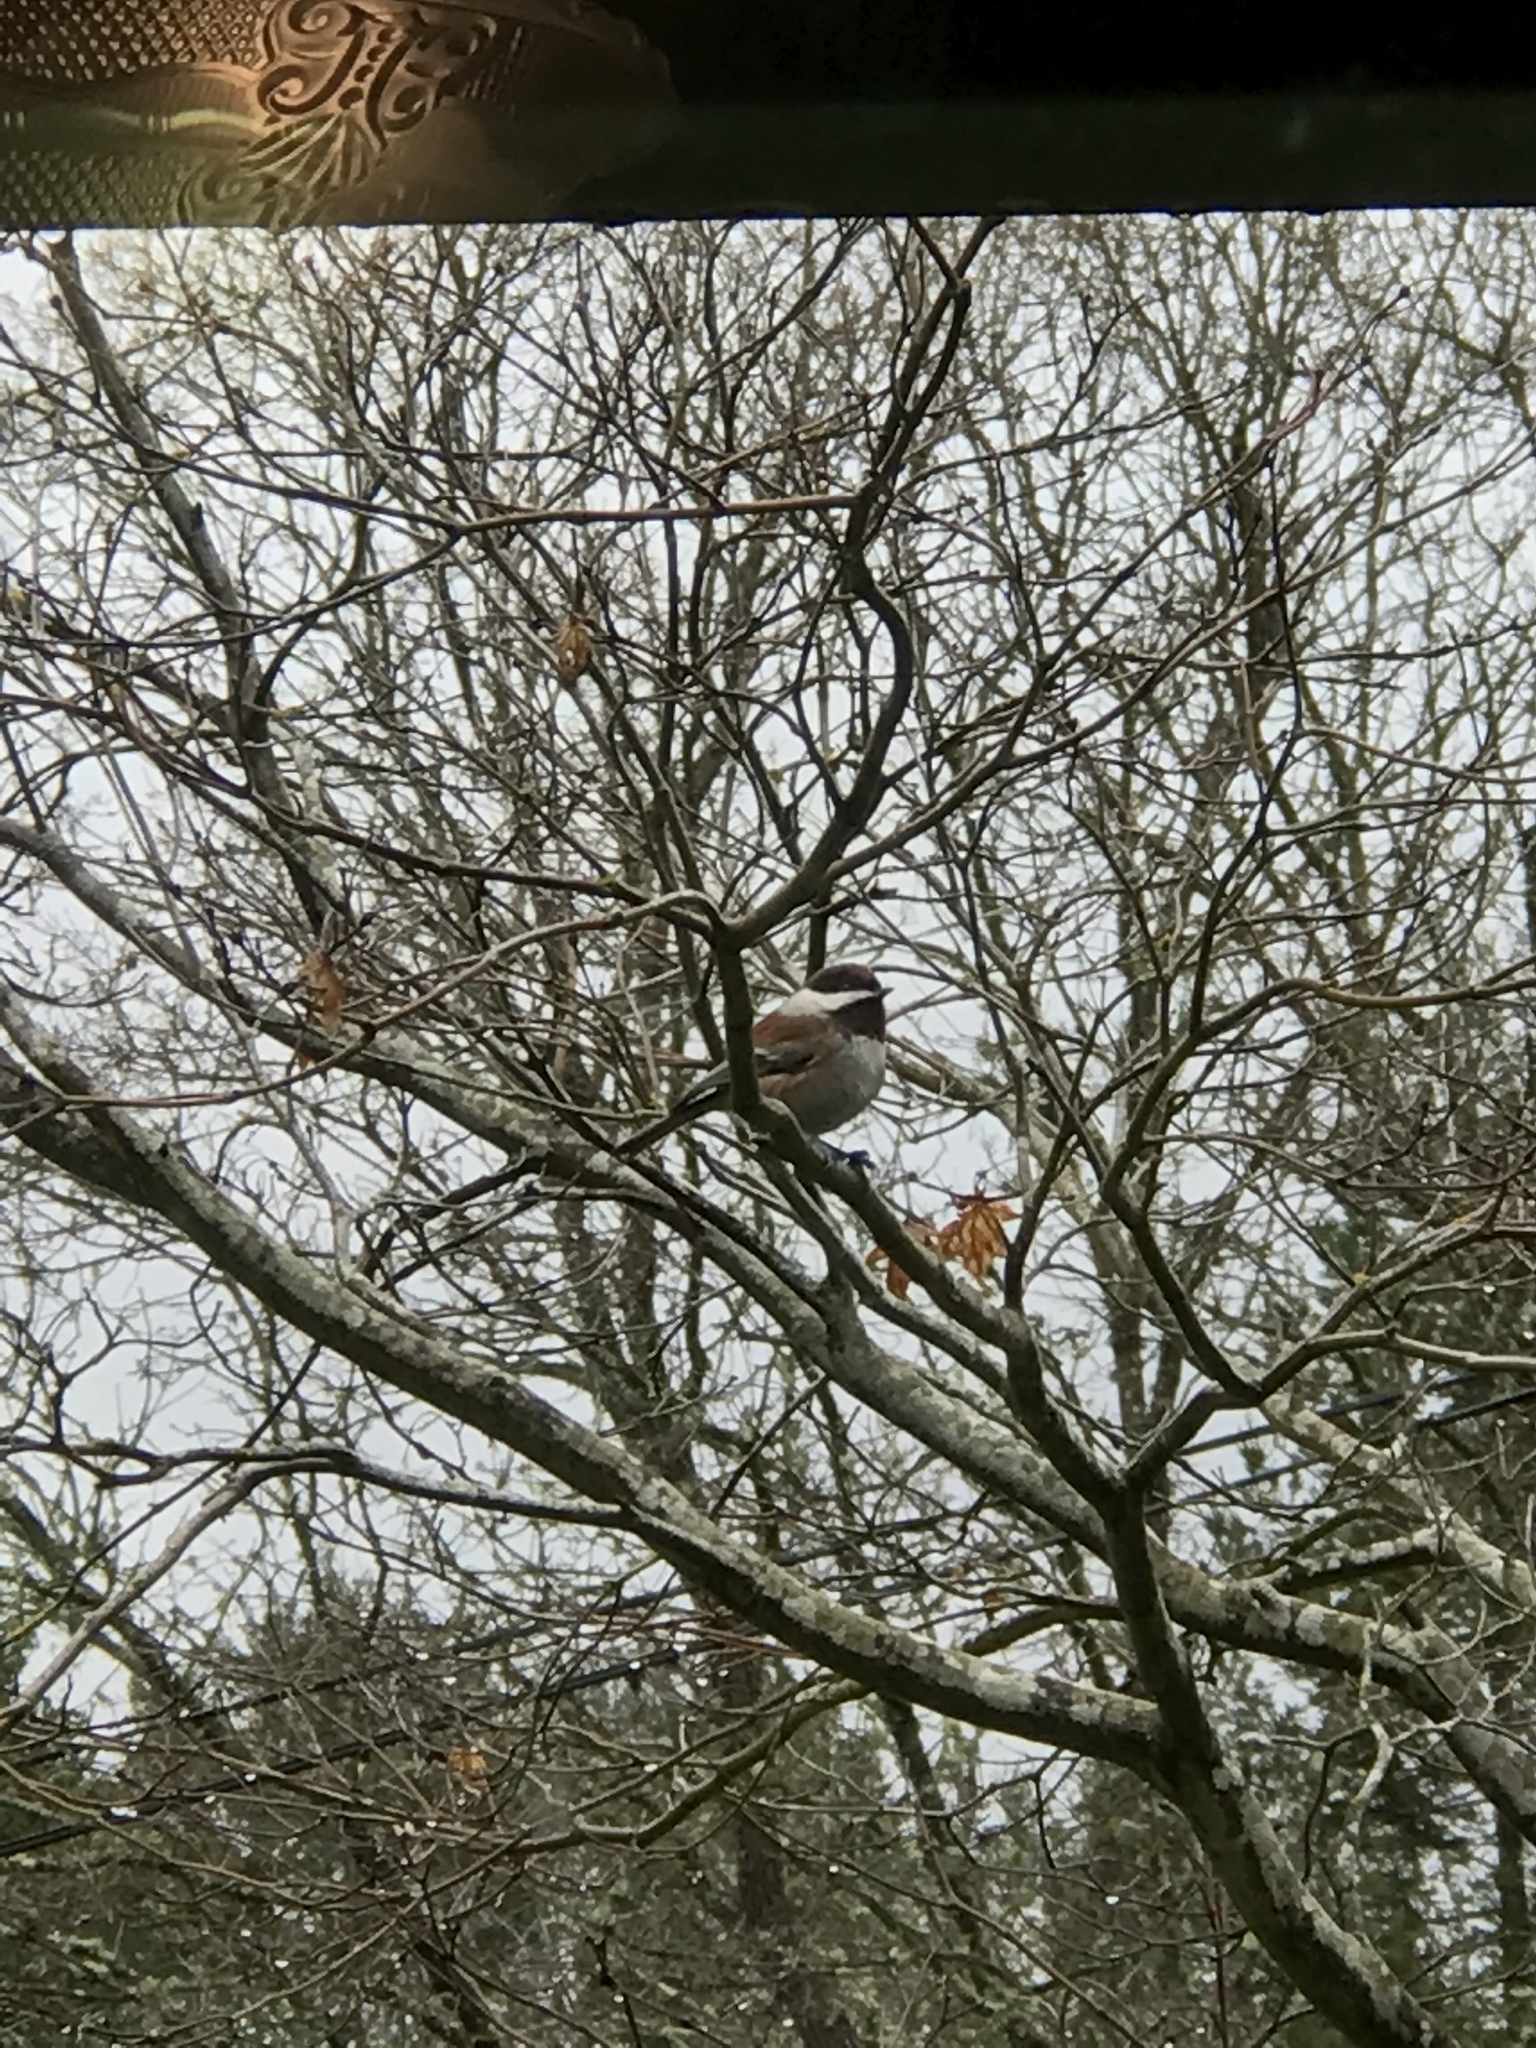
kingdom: Animalia
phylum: Chordata
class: Aves
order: Passeriformes
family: Paridae
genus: Poecile
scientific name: Poecile rufescens
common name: Chestnut-backed chickadee
